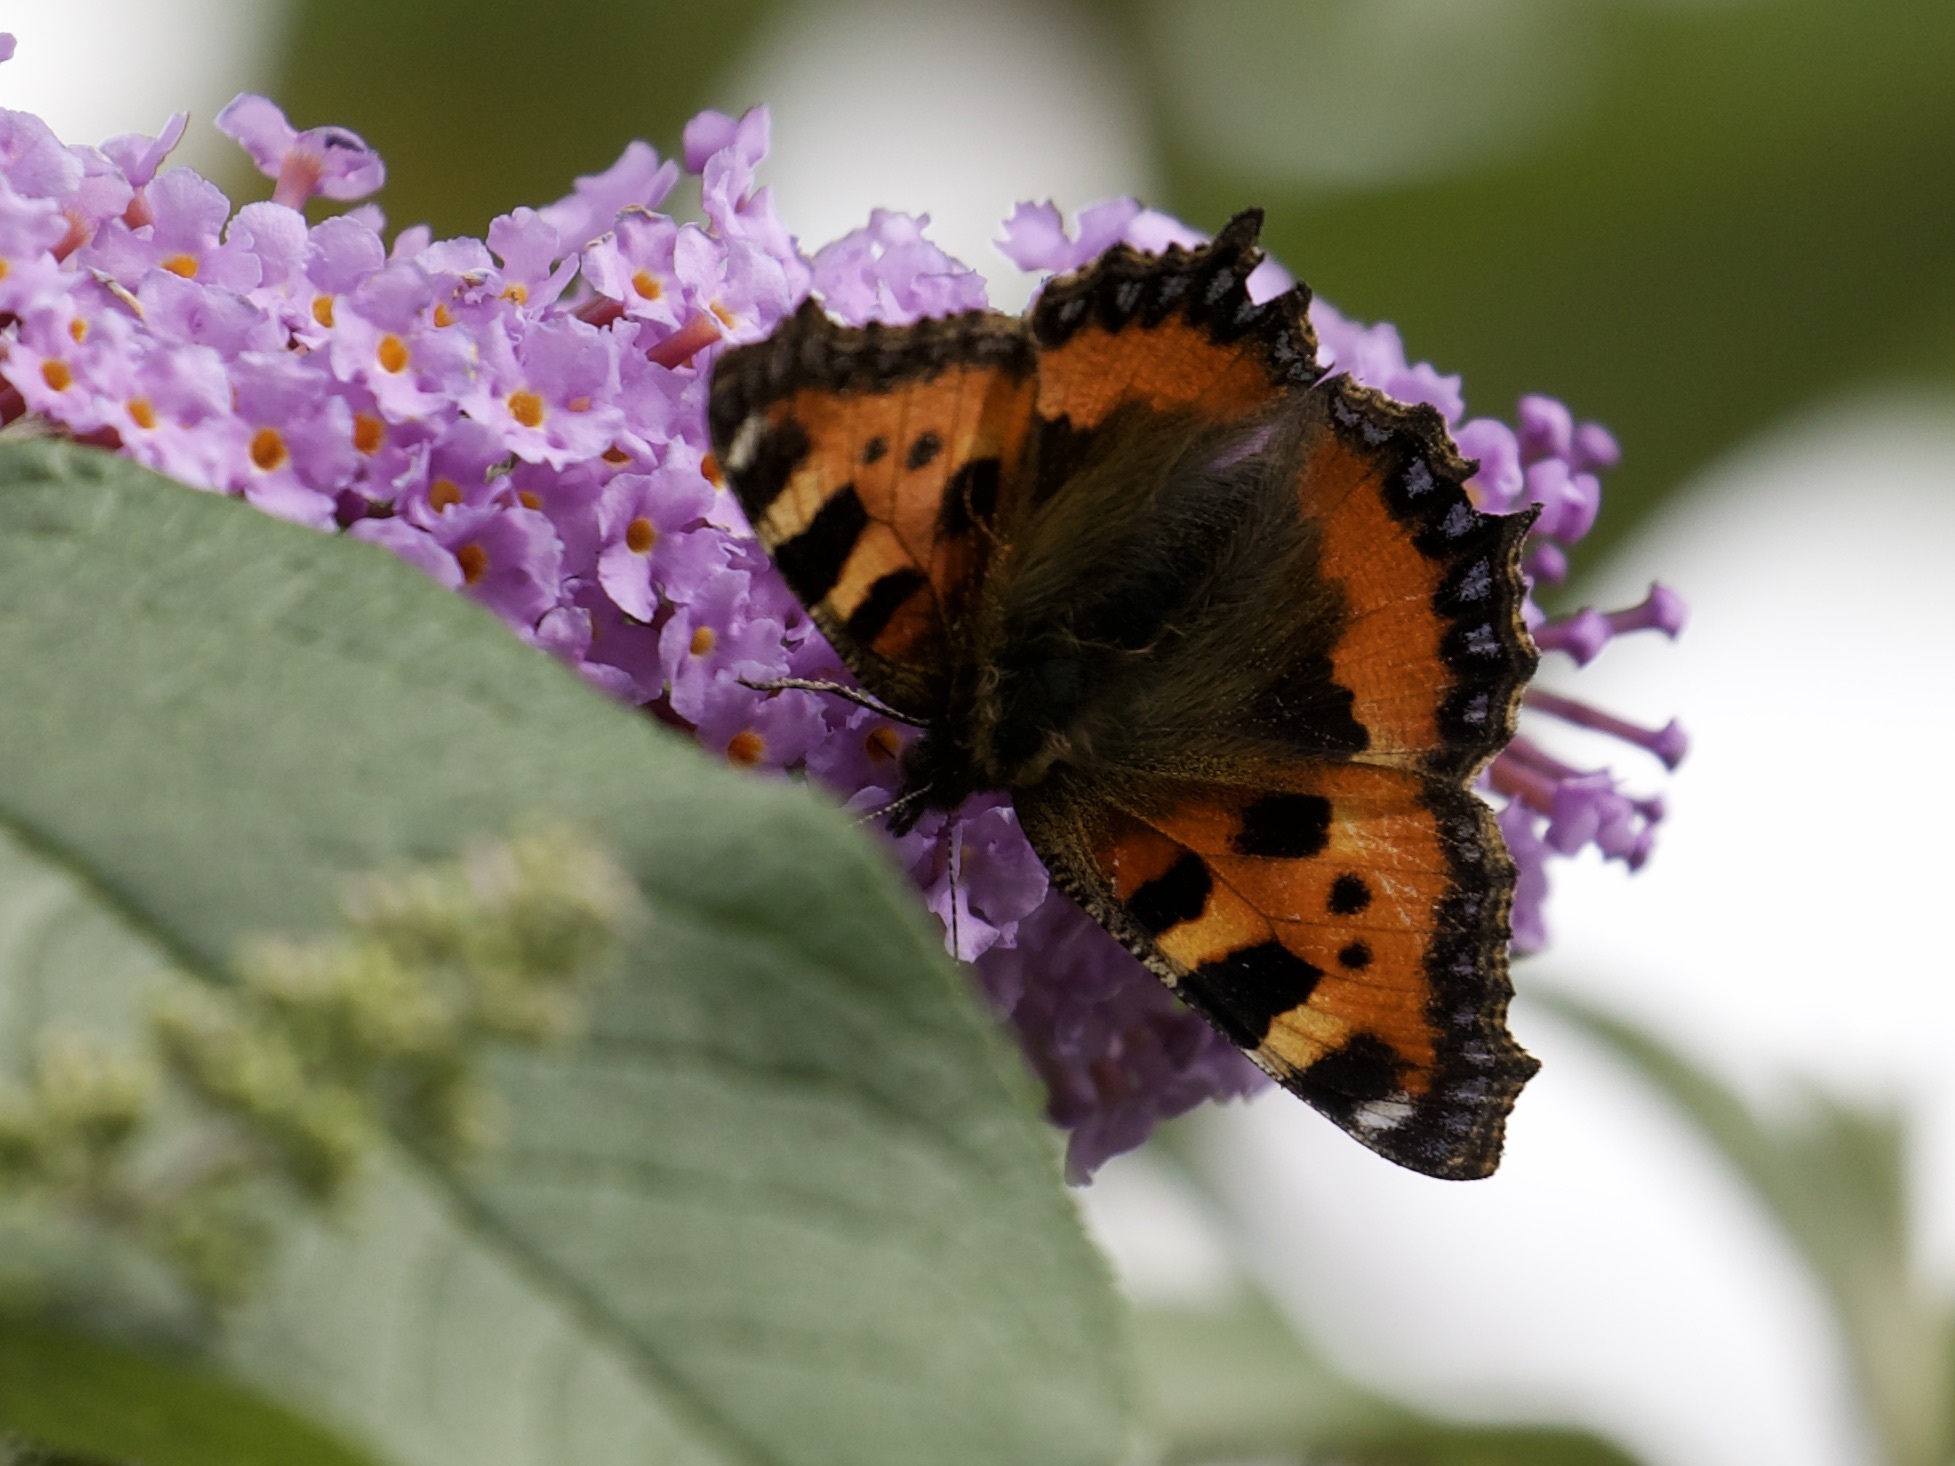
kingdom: Animalia
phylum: Arthropoda
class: Insecta
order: Lepidoptera
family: Nymphalidae
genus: Aglais
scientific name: Aglais urticae
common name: Small tortoiseshell
